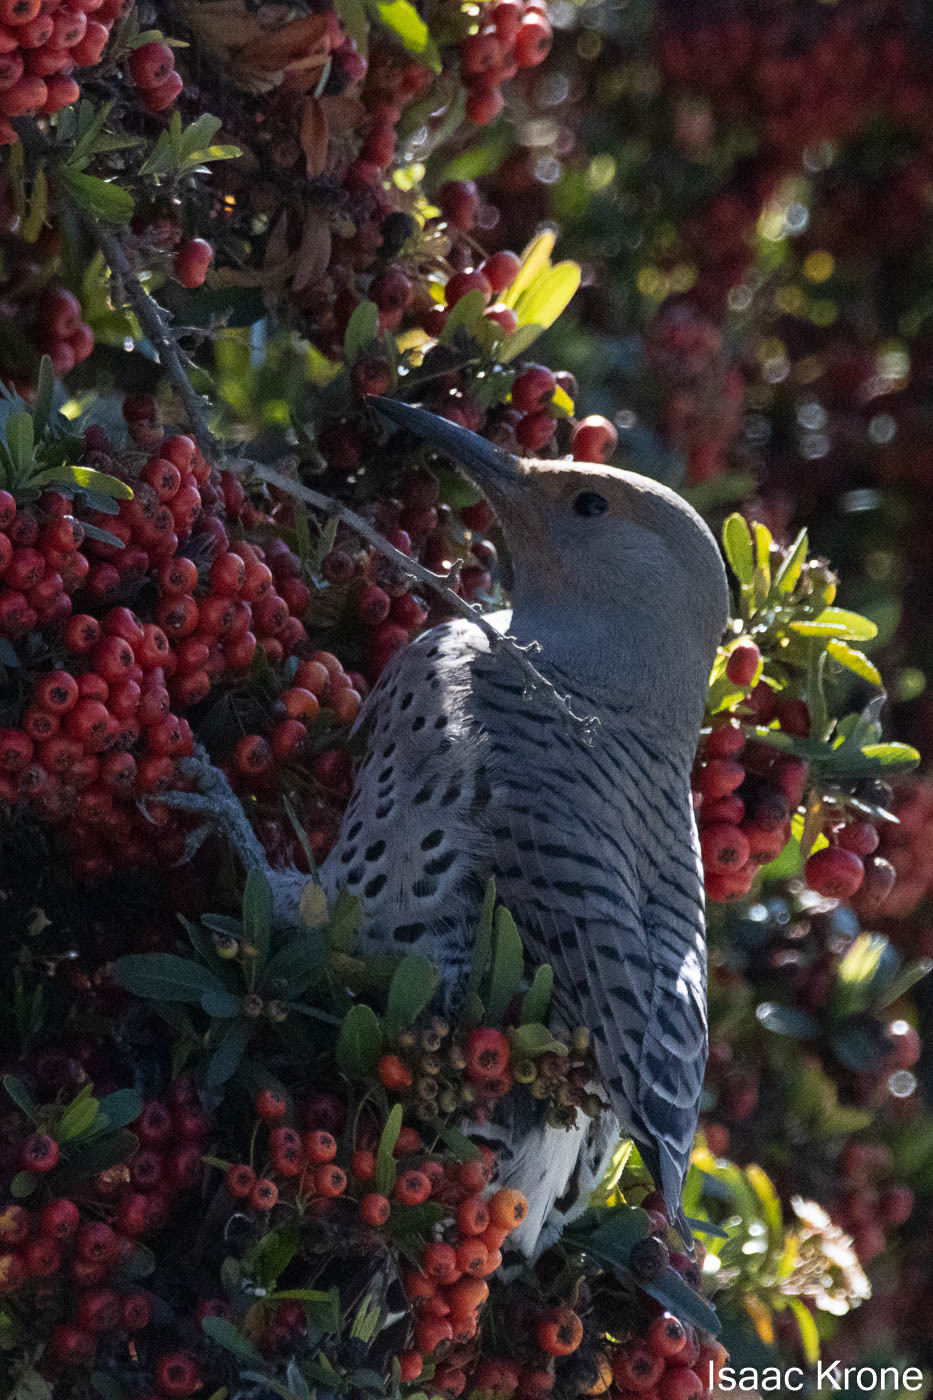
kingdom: Animalia
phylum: Chordata
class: Aves
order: Piciformes
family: Picidae
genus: Colaptes
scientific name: Colaptes auratus
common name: Northern flicker
